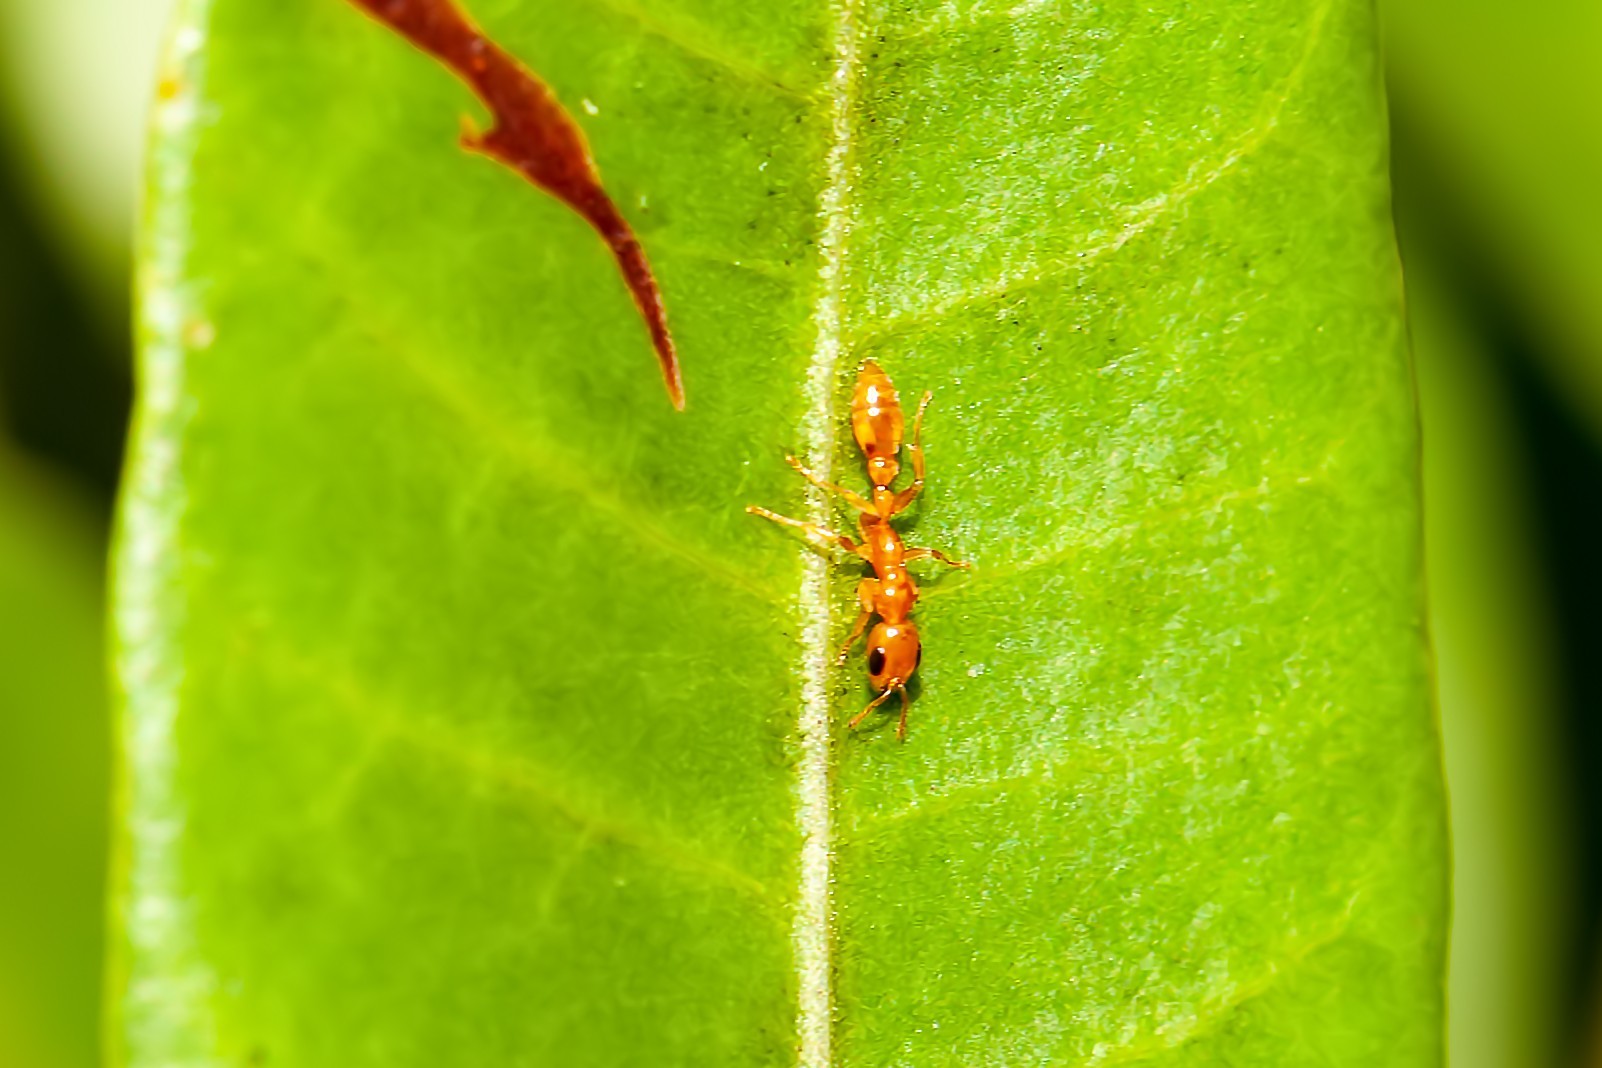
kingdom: Animalia
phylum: Arthropoda
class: Insecta
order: Hymenoptera
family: Formicidae
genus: Pseudomyrmex
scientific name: Pseudomyrmex pallidus
